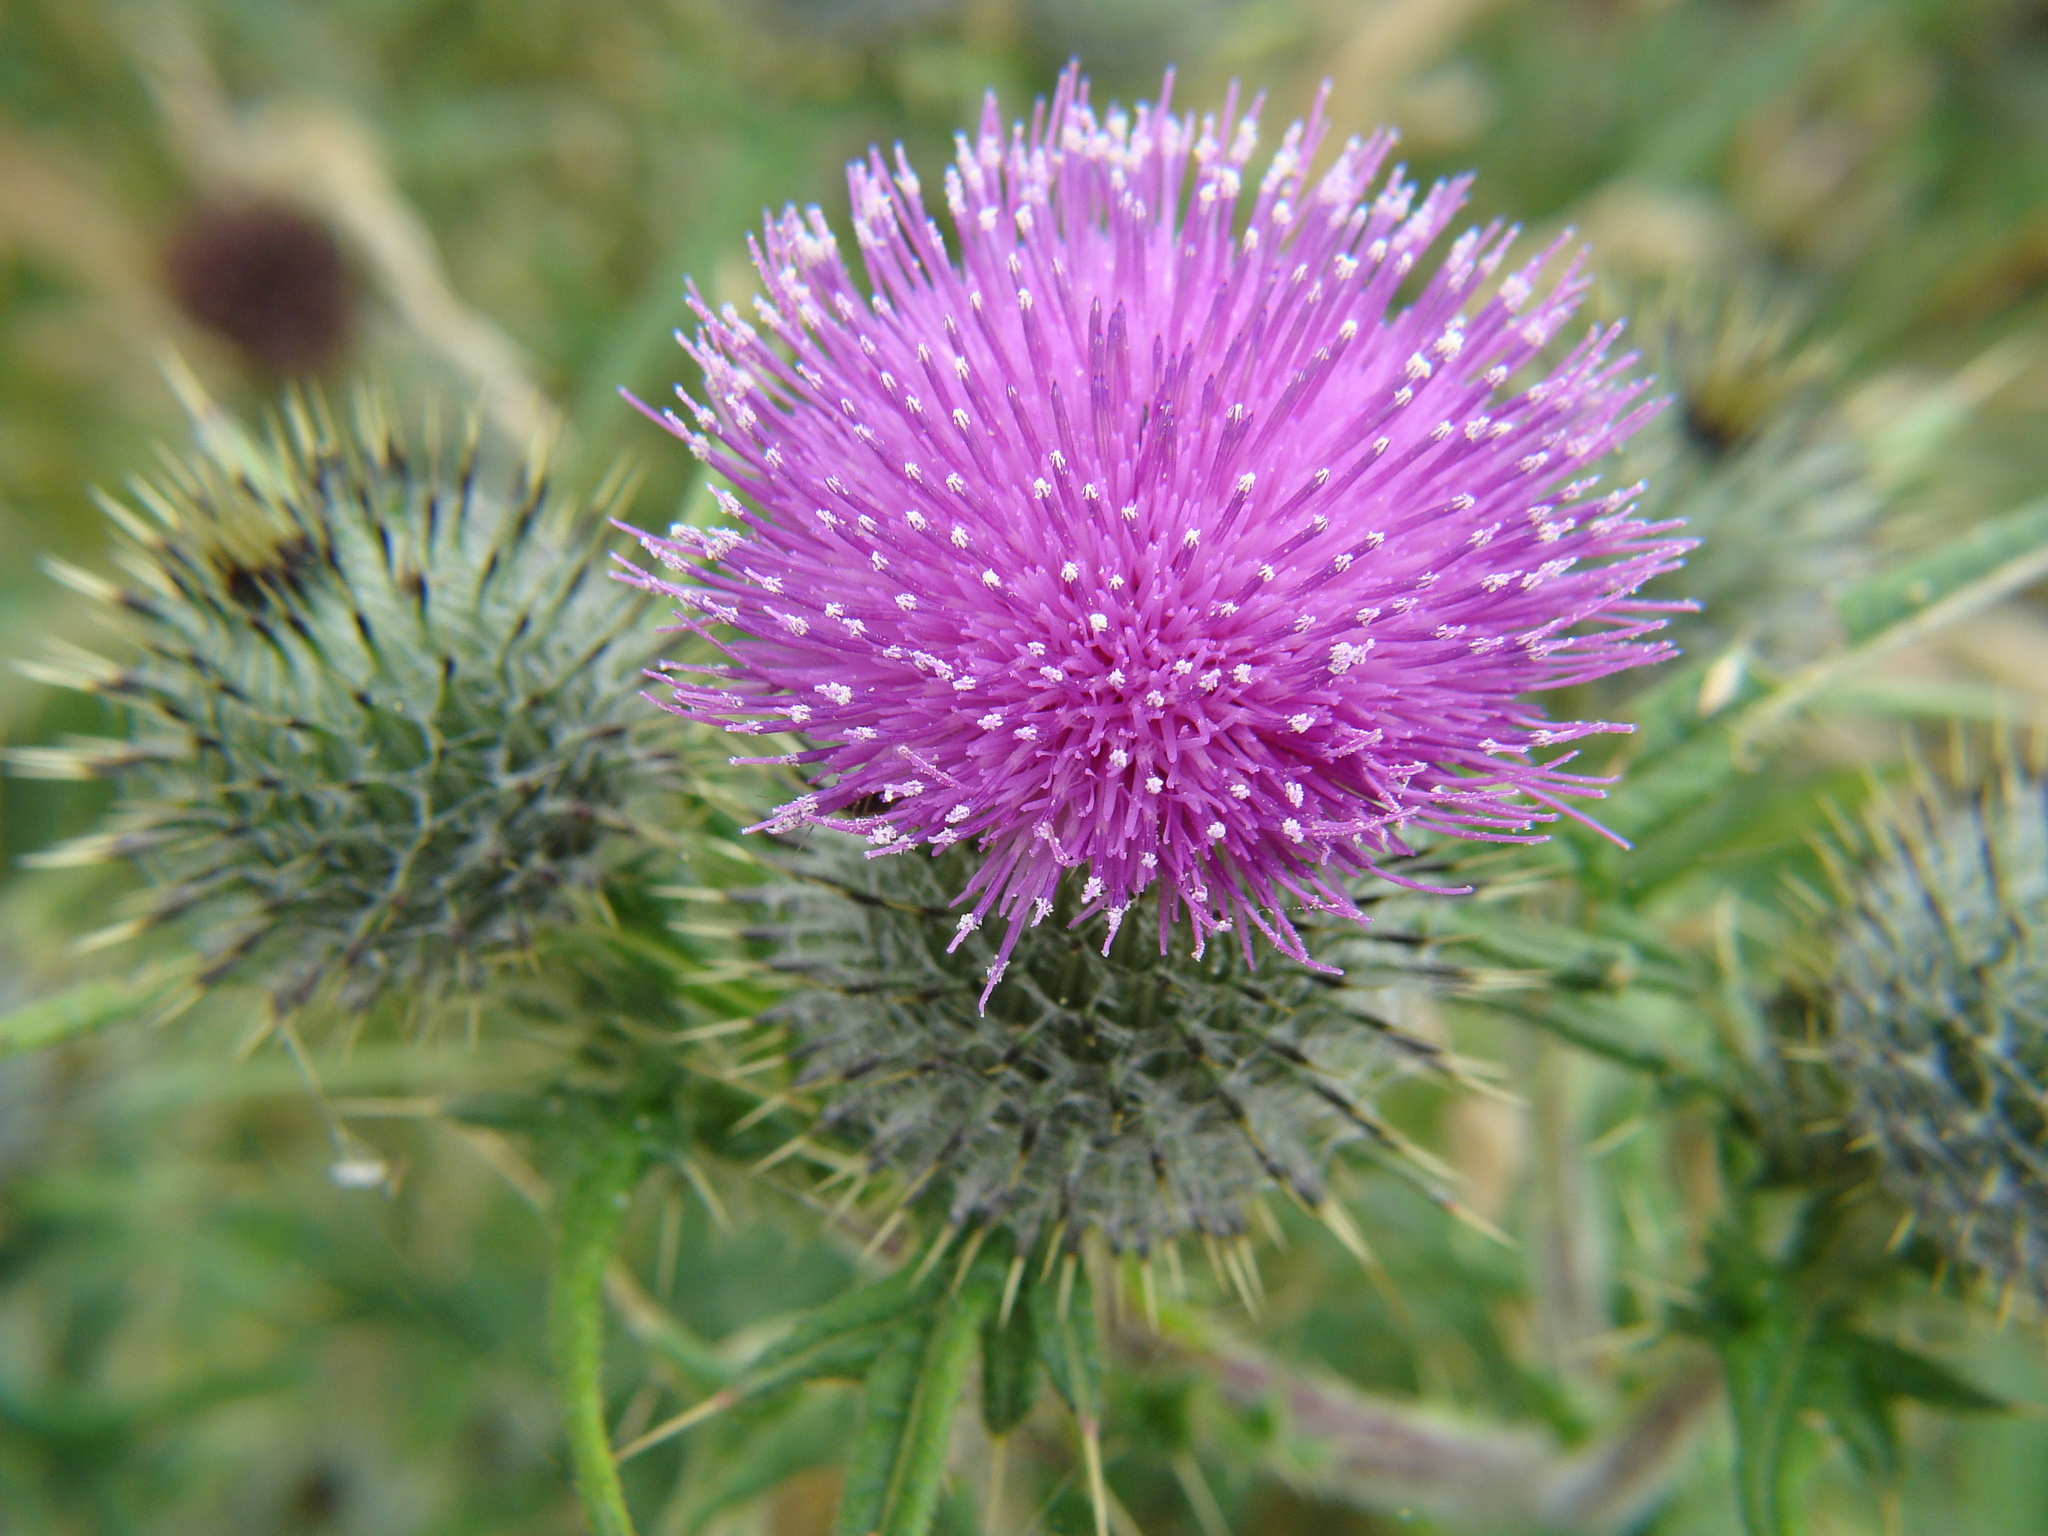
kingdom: Plantae
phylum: Tracheophyta
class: Magnoliopsida
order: Asterales
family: Asteraceae
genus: Cirsium
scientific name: Cirsium vulgare
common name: Bull thistle
